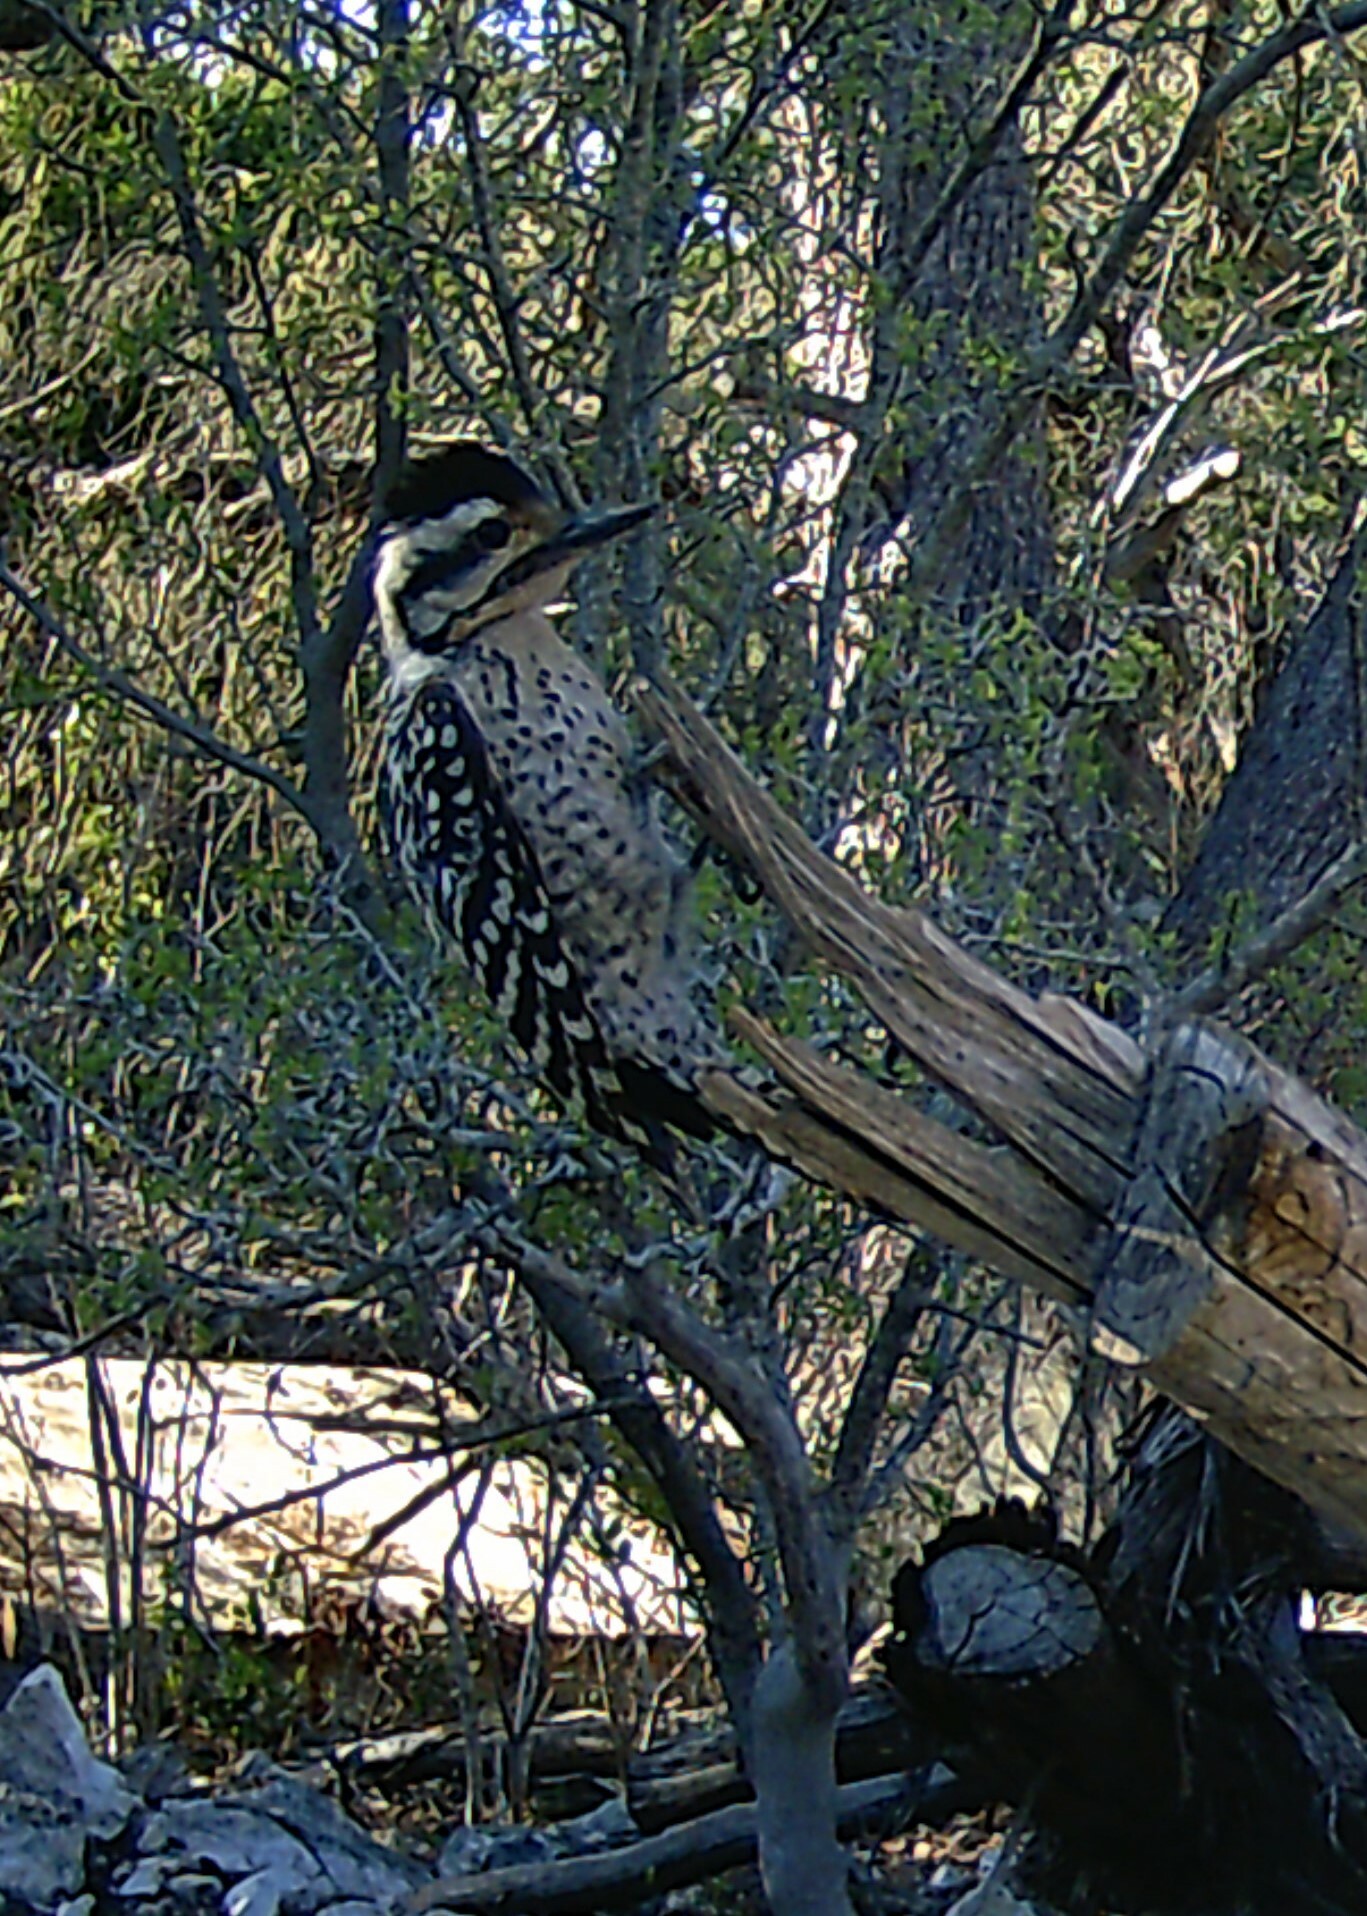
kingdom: Animalia
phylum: Chordata
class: Aves
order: Piciformes
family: Picidae
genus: Dryobates
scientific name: Dryobates scalaris
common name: Ladder-backed woodpecker
